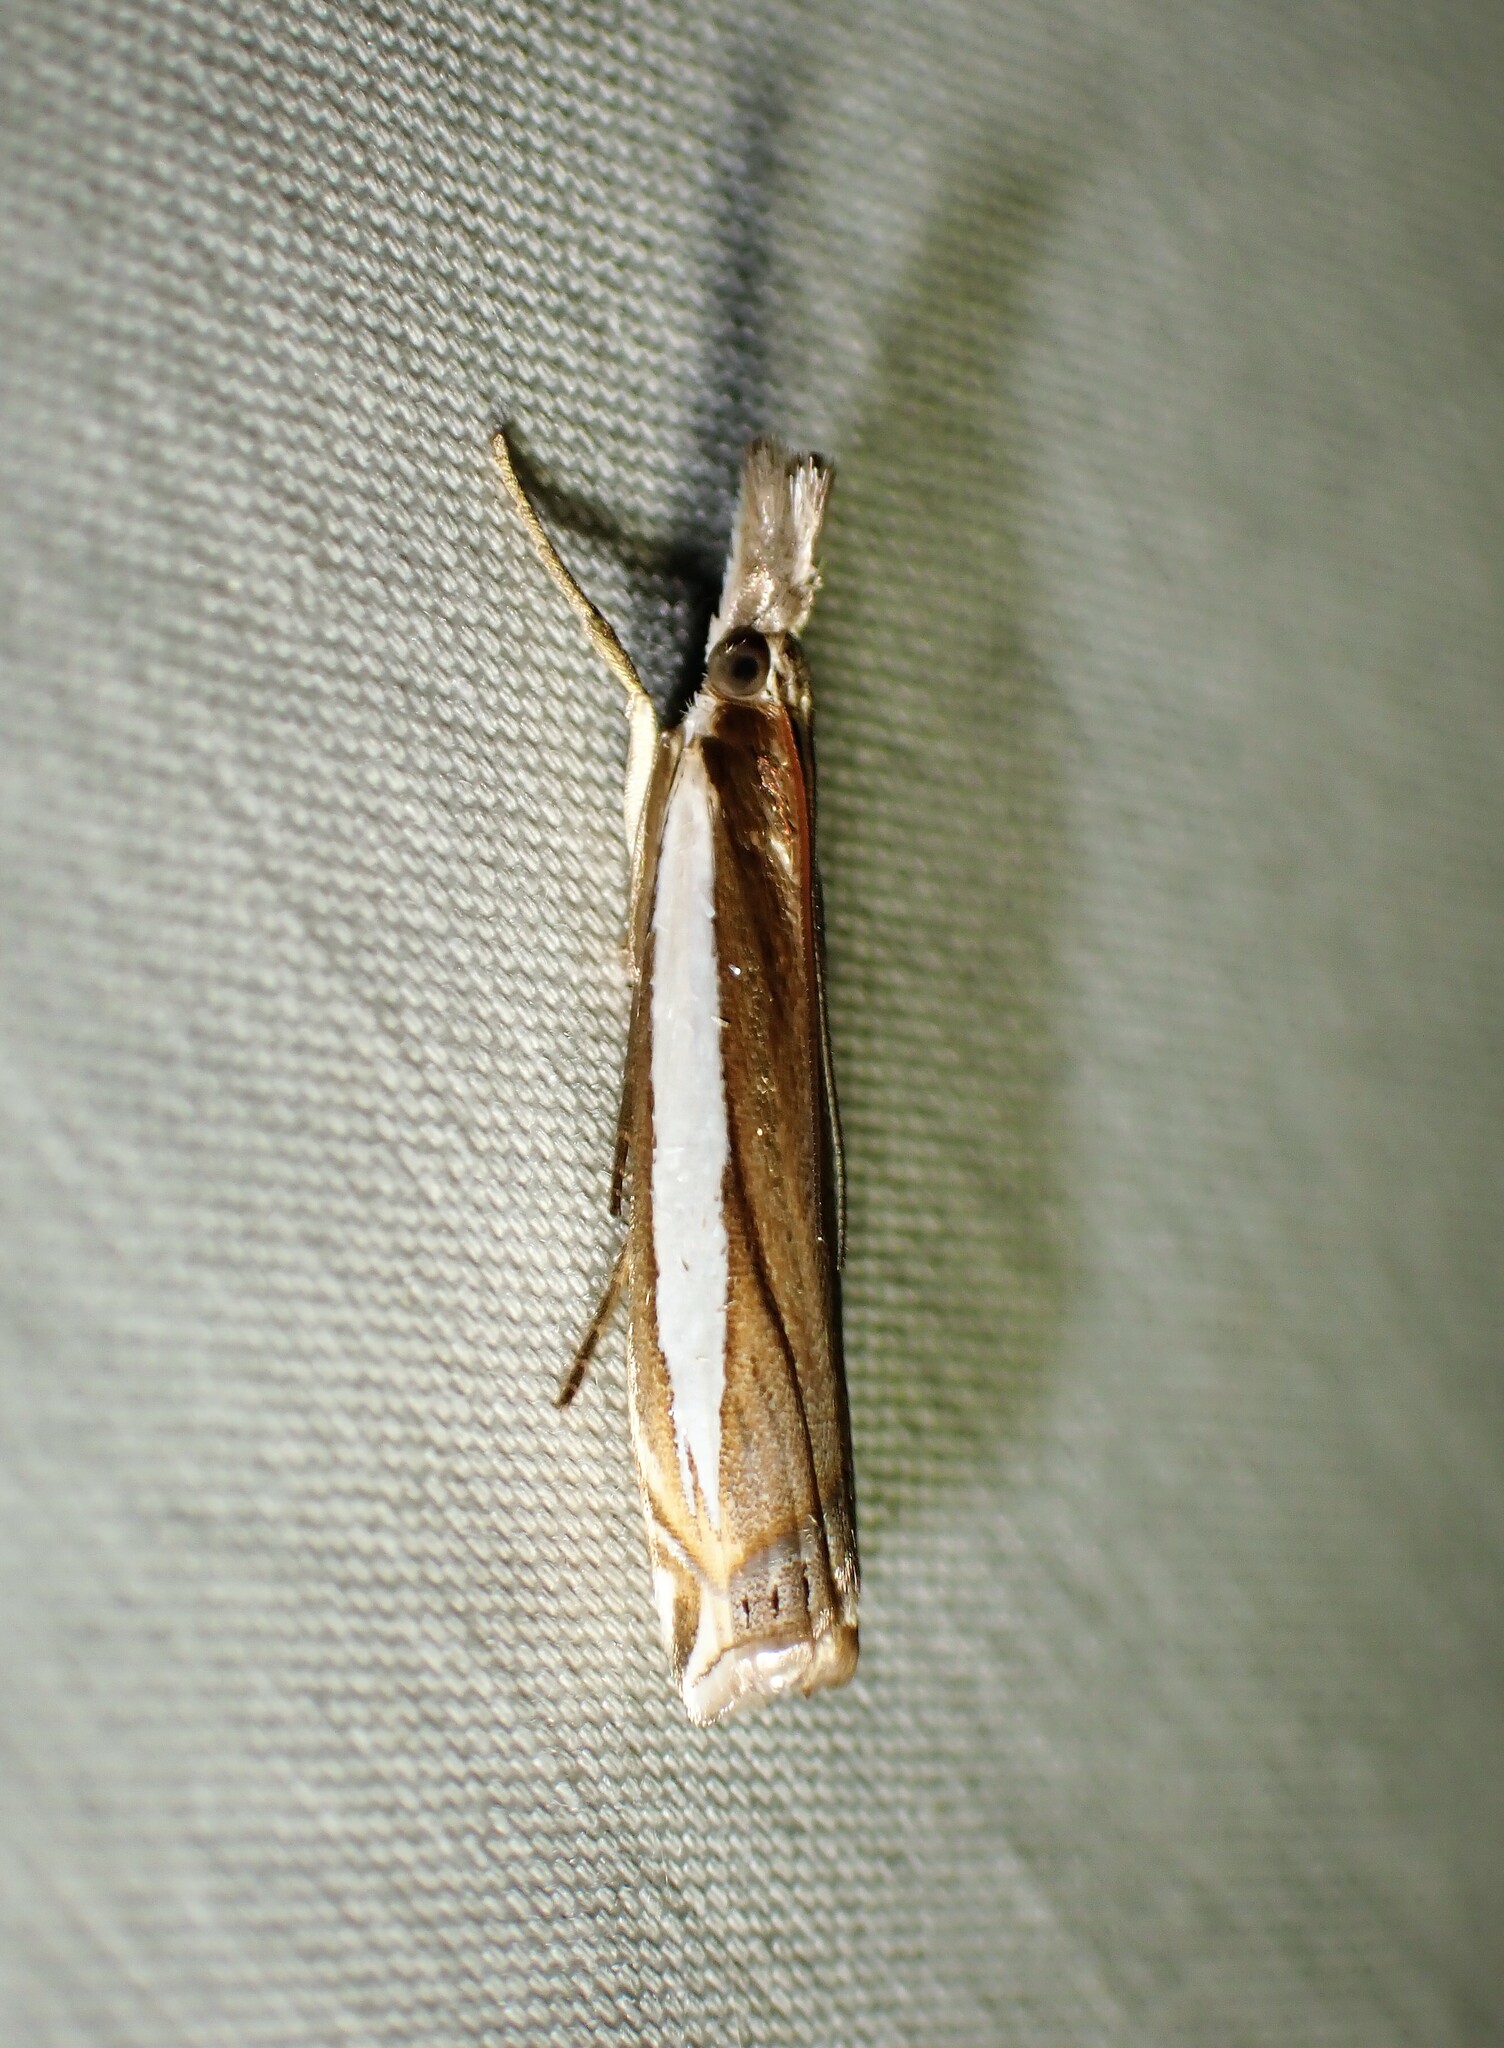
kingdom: Animalia
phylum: Arthropoda
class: Insecta
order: Lepidoptera
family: Crambidae
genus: Crambus
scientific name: Crambus leachellus
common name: Leach's grass-veneer
